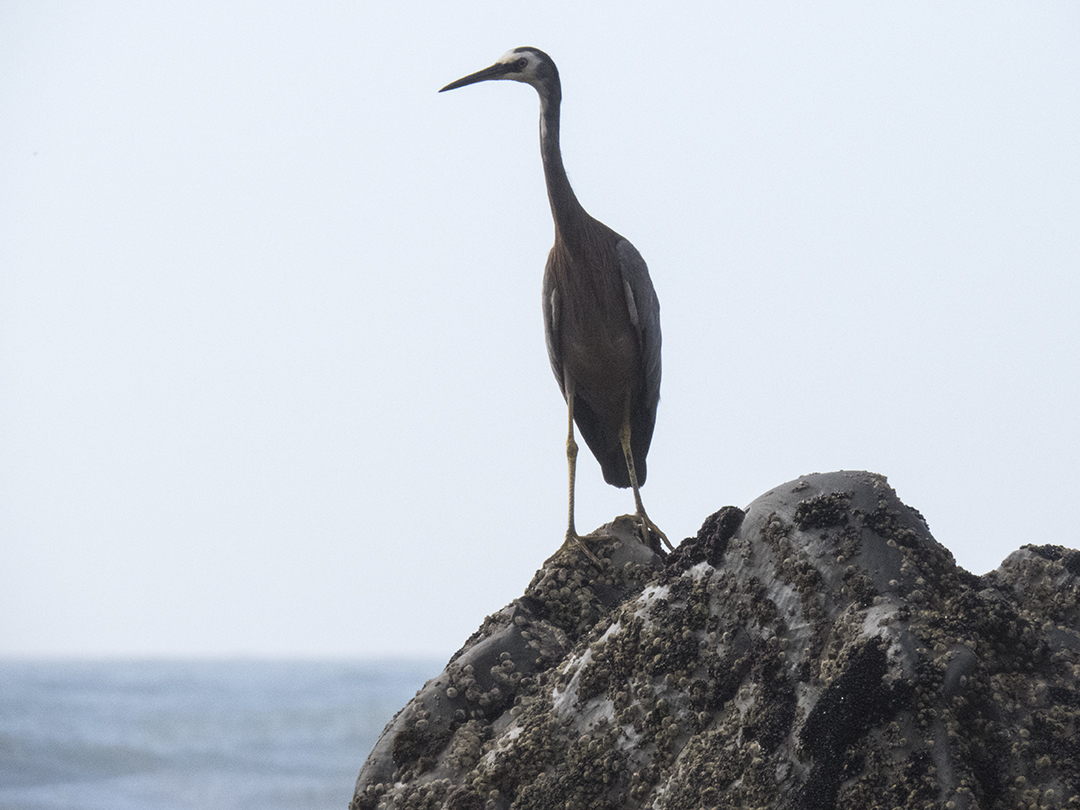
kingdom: Animalia
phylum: Chordata
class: Aves
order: Pelecaniformes
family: Ardeidae
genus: Egretta
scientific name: Egretta novaehollandiae
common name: White-faced heron
